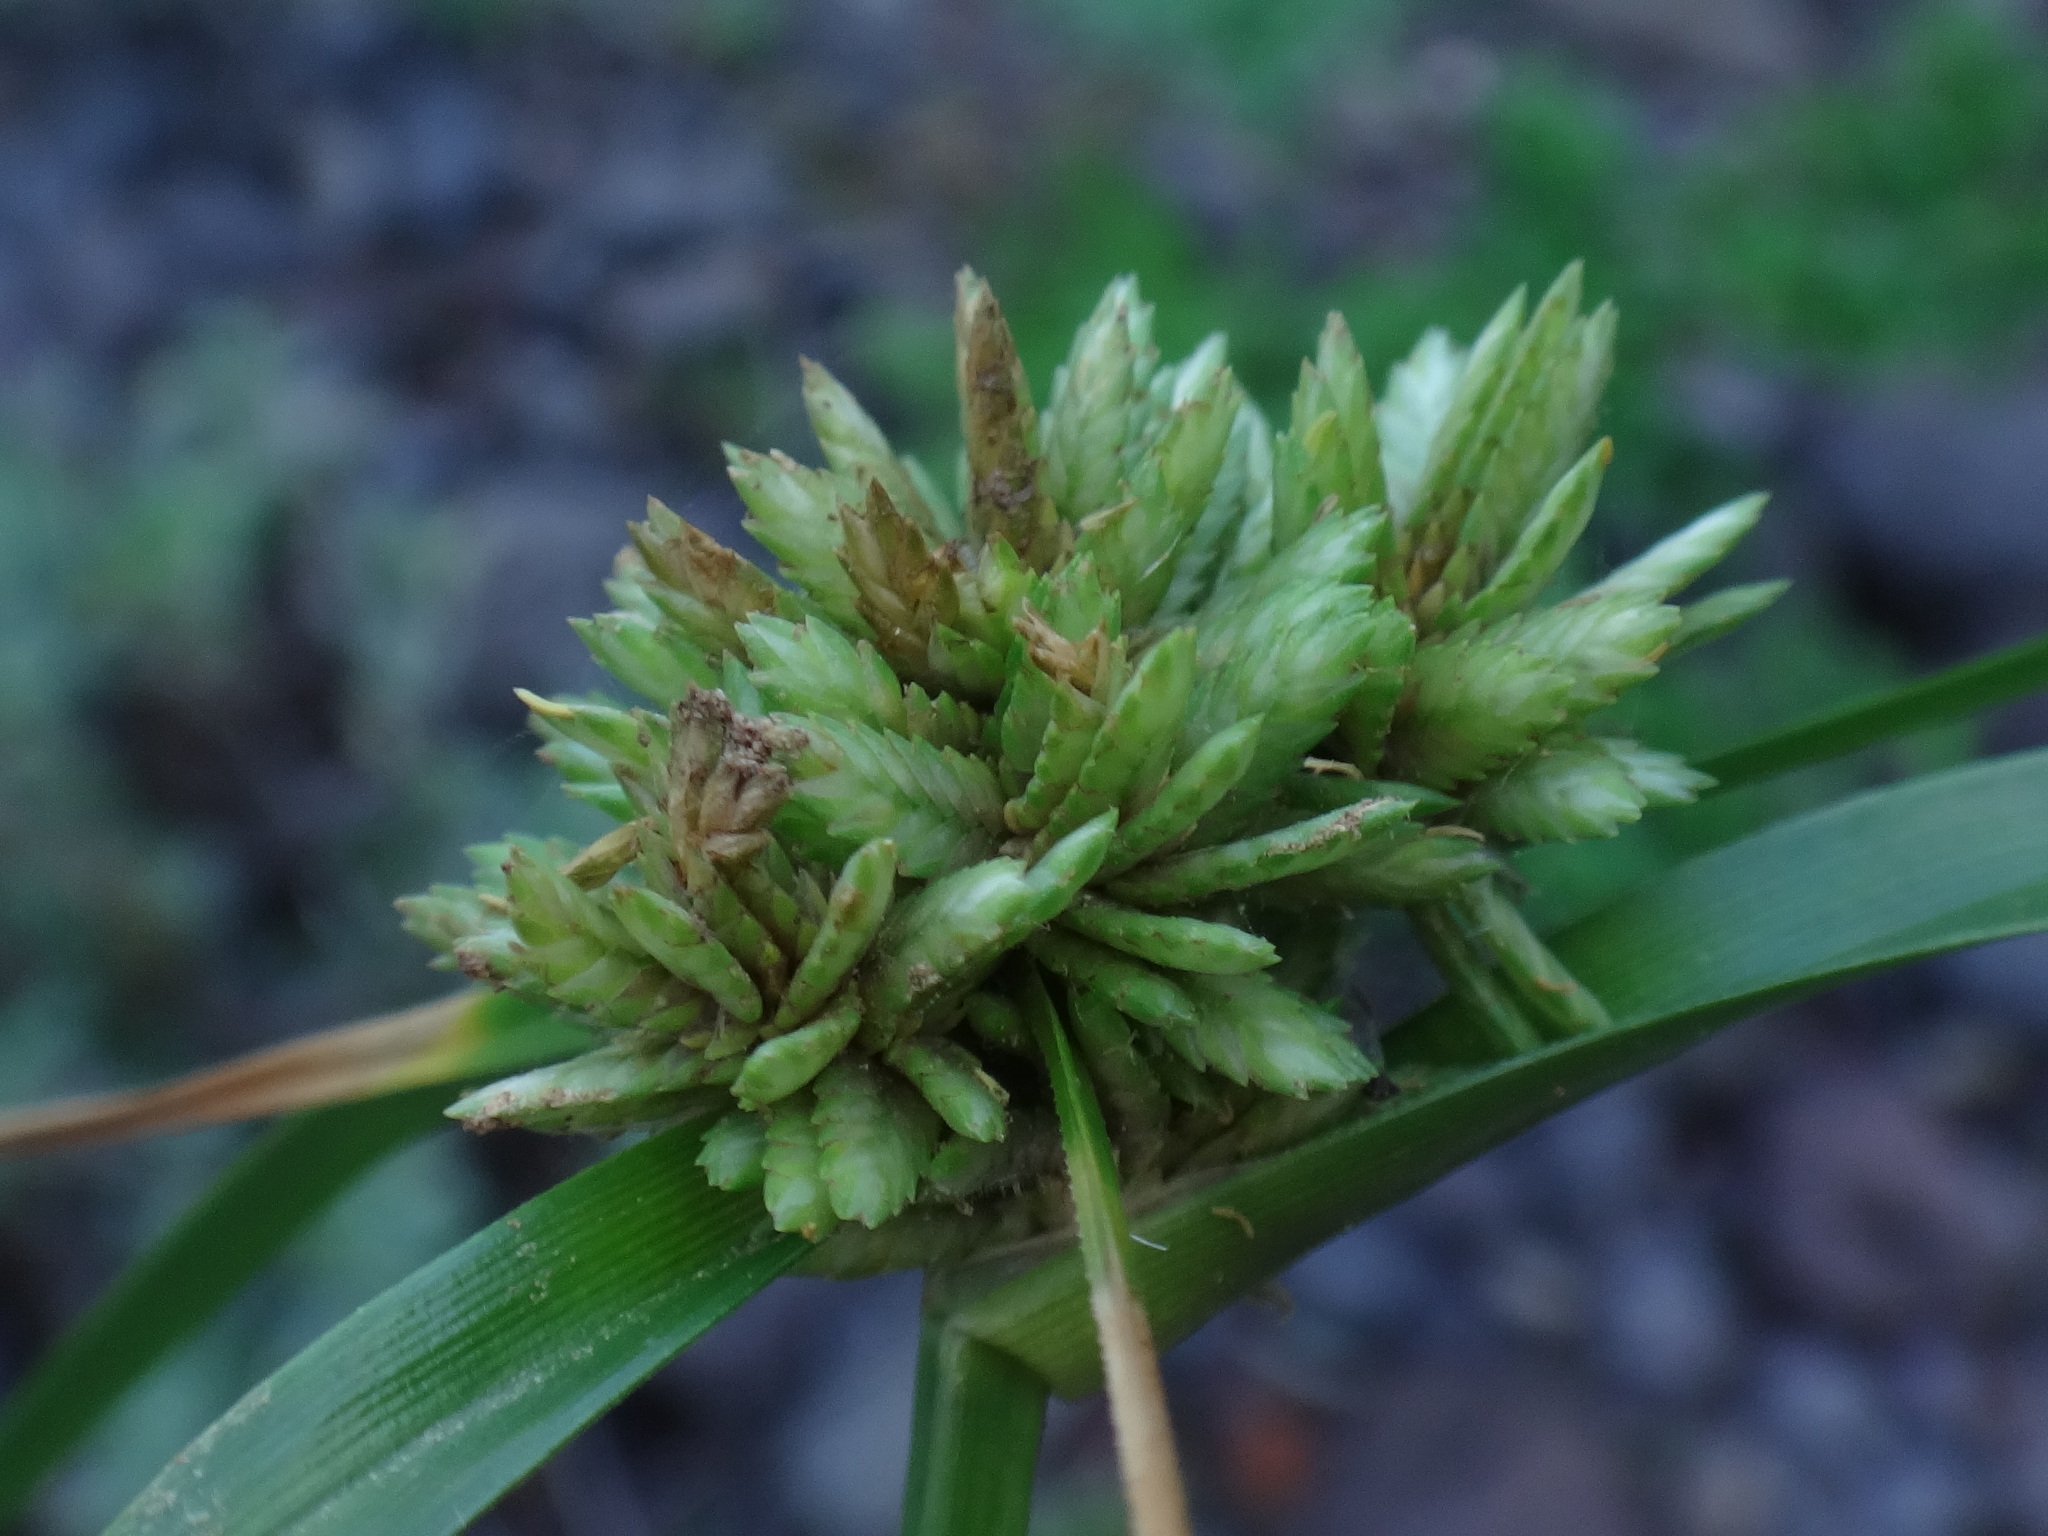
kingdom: Plantae
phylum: Tracheophyta
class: Liliopsida
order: Poales
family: Cyperaceae
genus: Cyperus
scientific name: Cyperus eragrostis
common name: Tall flatsedge
